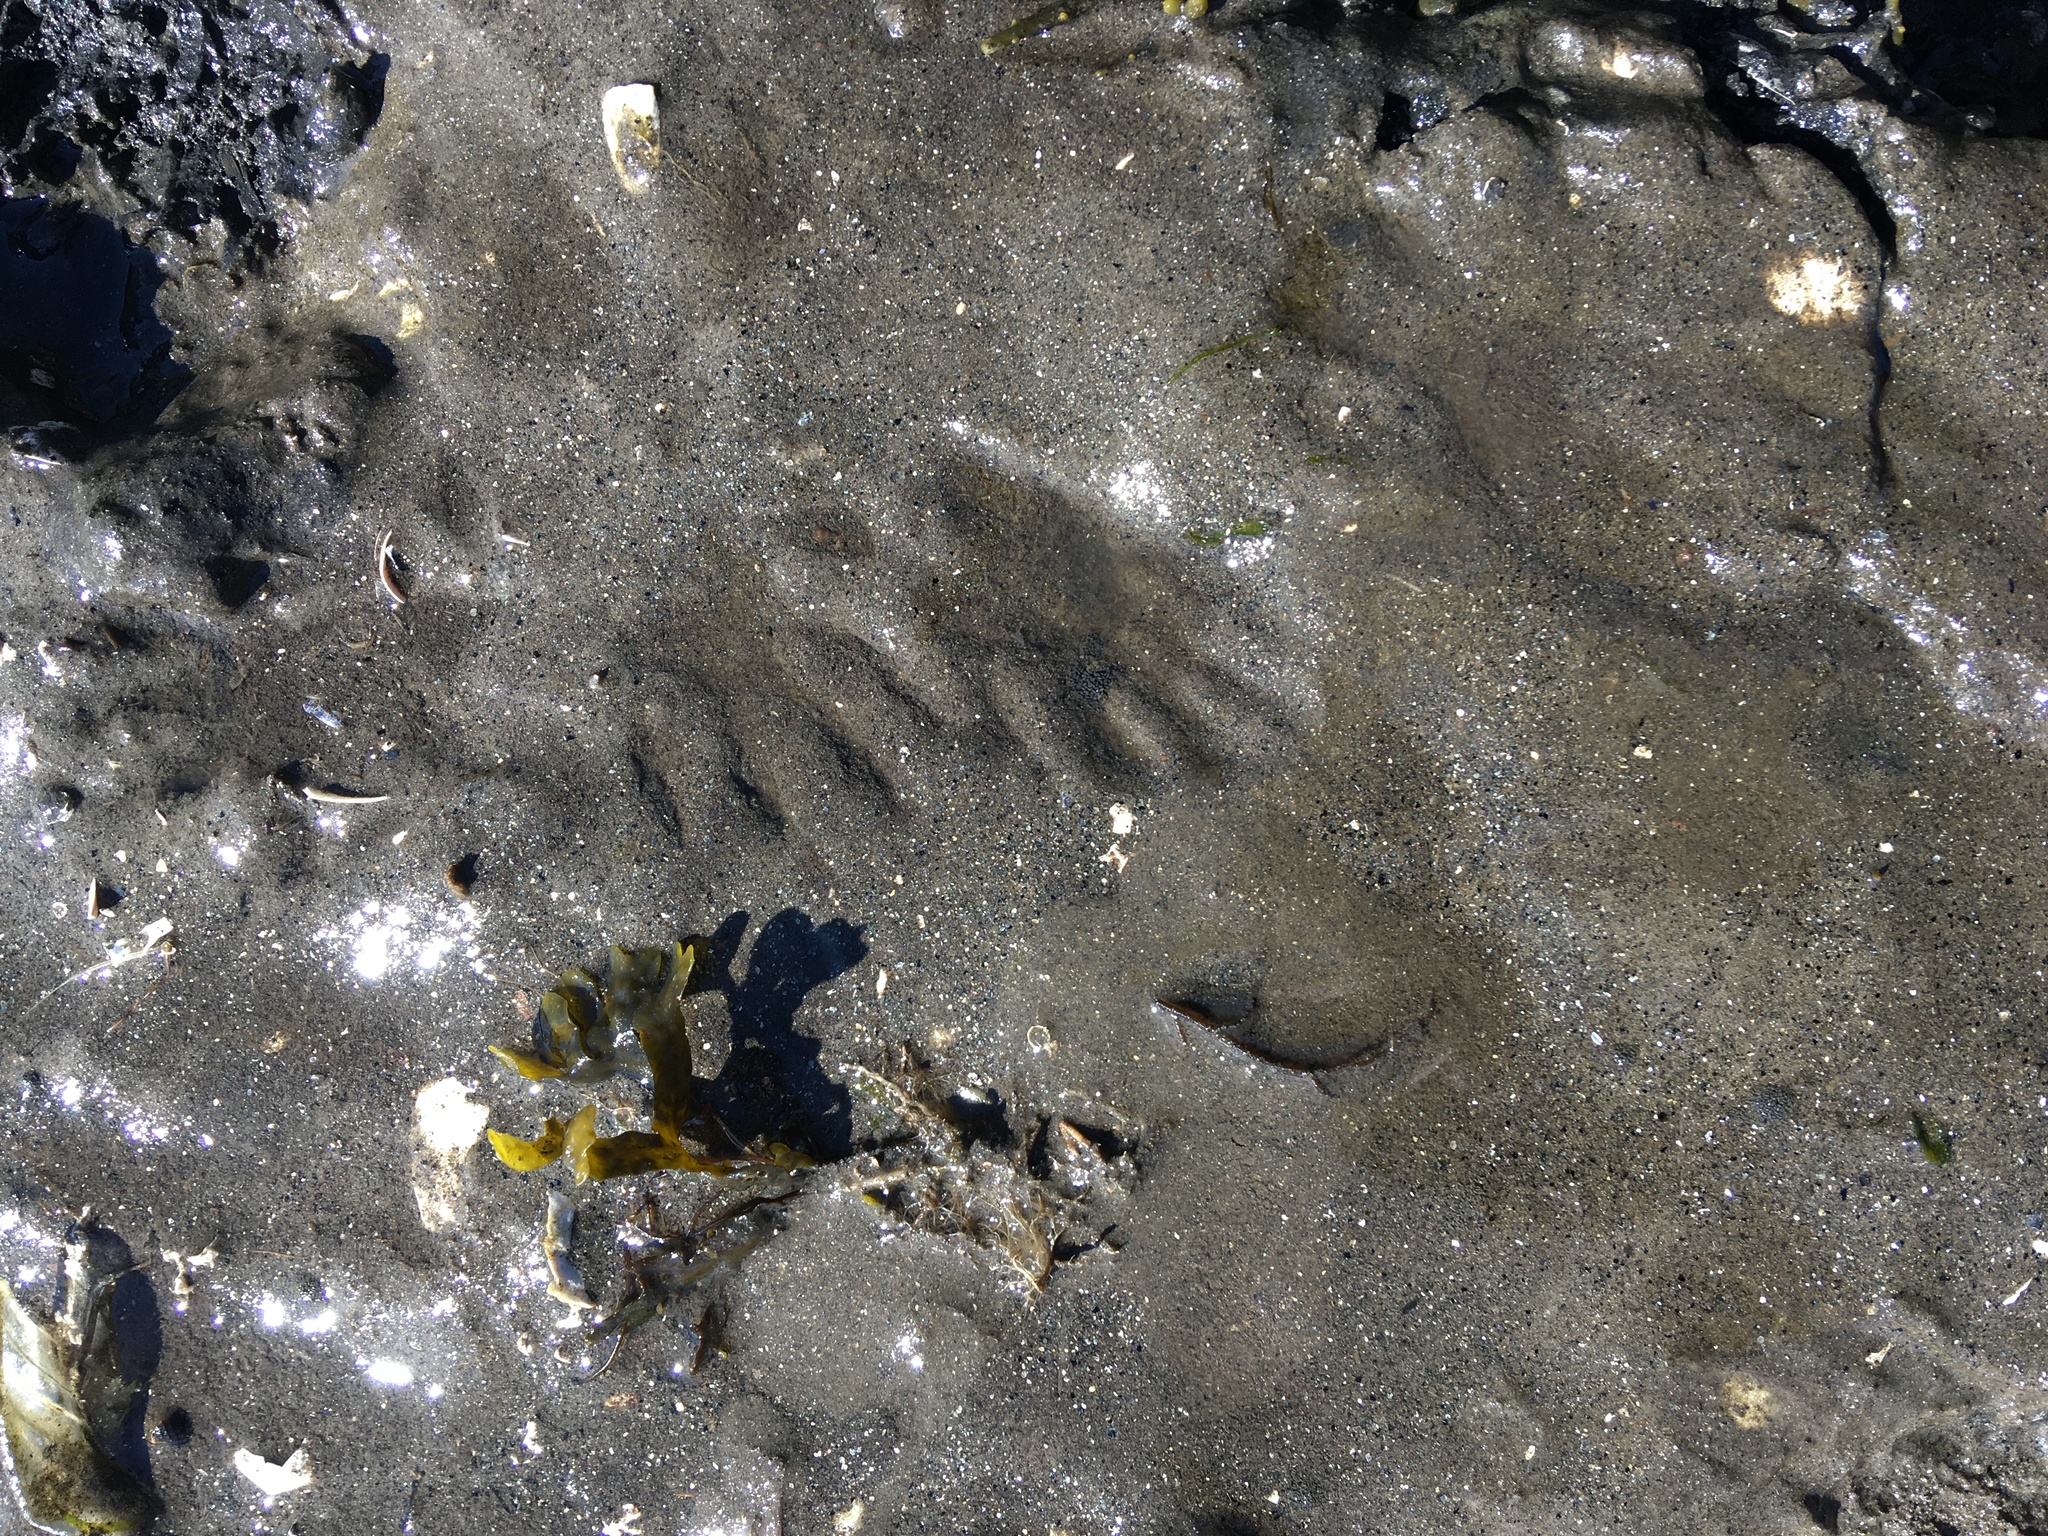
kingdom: Animalia
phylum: Chordata
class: Mammalia
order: Carnivora
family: Procyonidae
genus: Procyon
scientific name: Procyon lotor
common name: Raccoon
